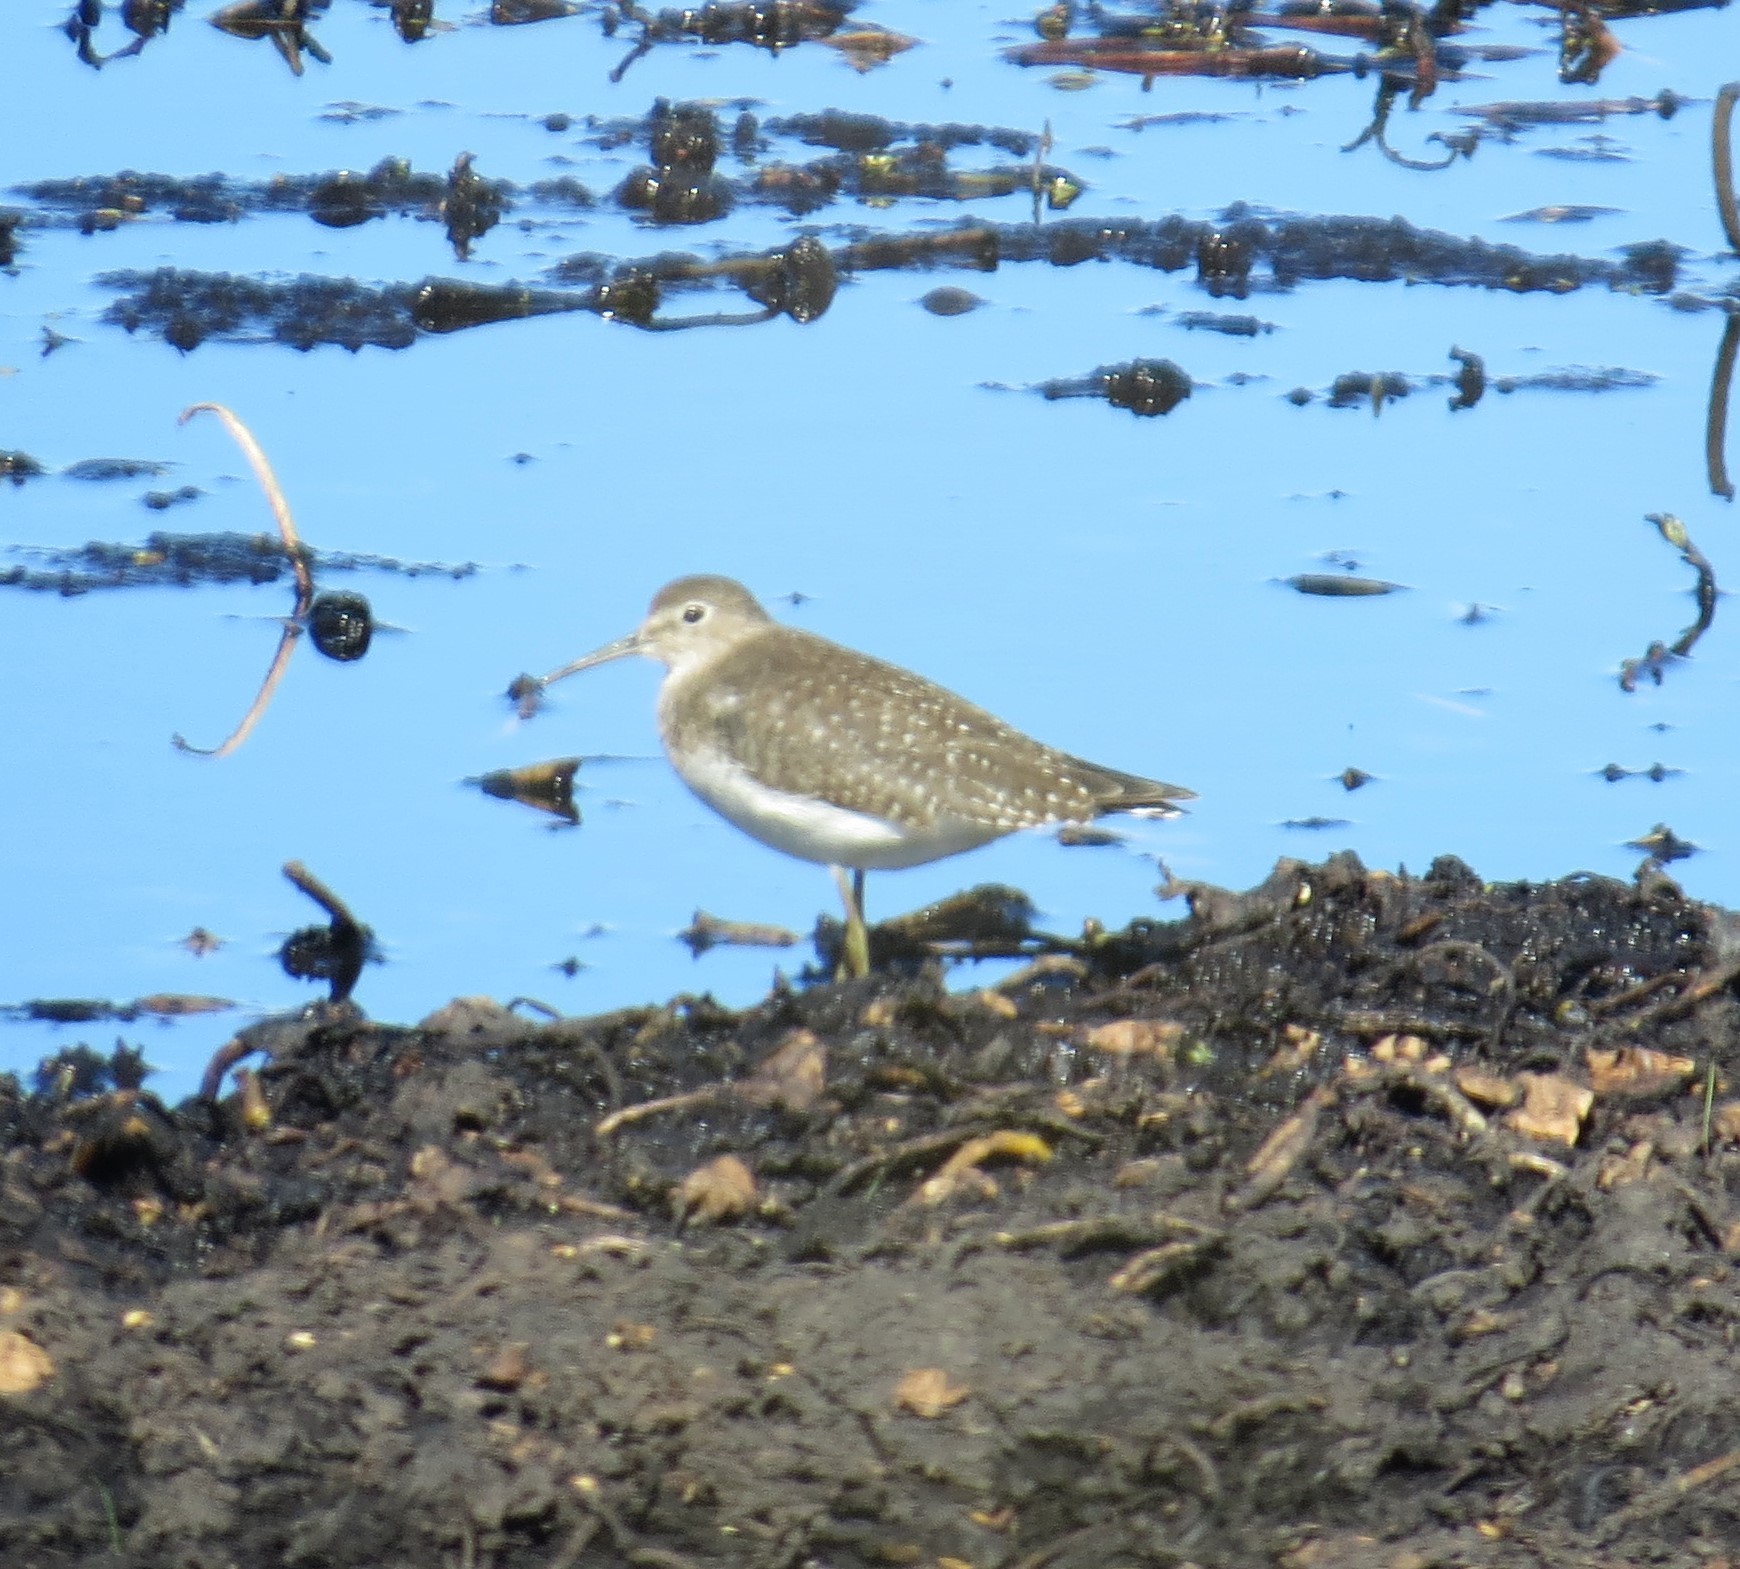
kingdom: Animalia
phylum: Chordata
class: Aves
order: Charadriiformes
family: Scolopacidae
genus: Tringa
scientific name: Tringa solitaria
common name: Solitary sandpiper
